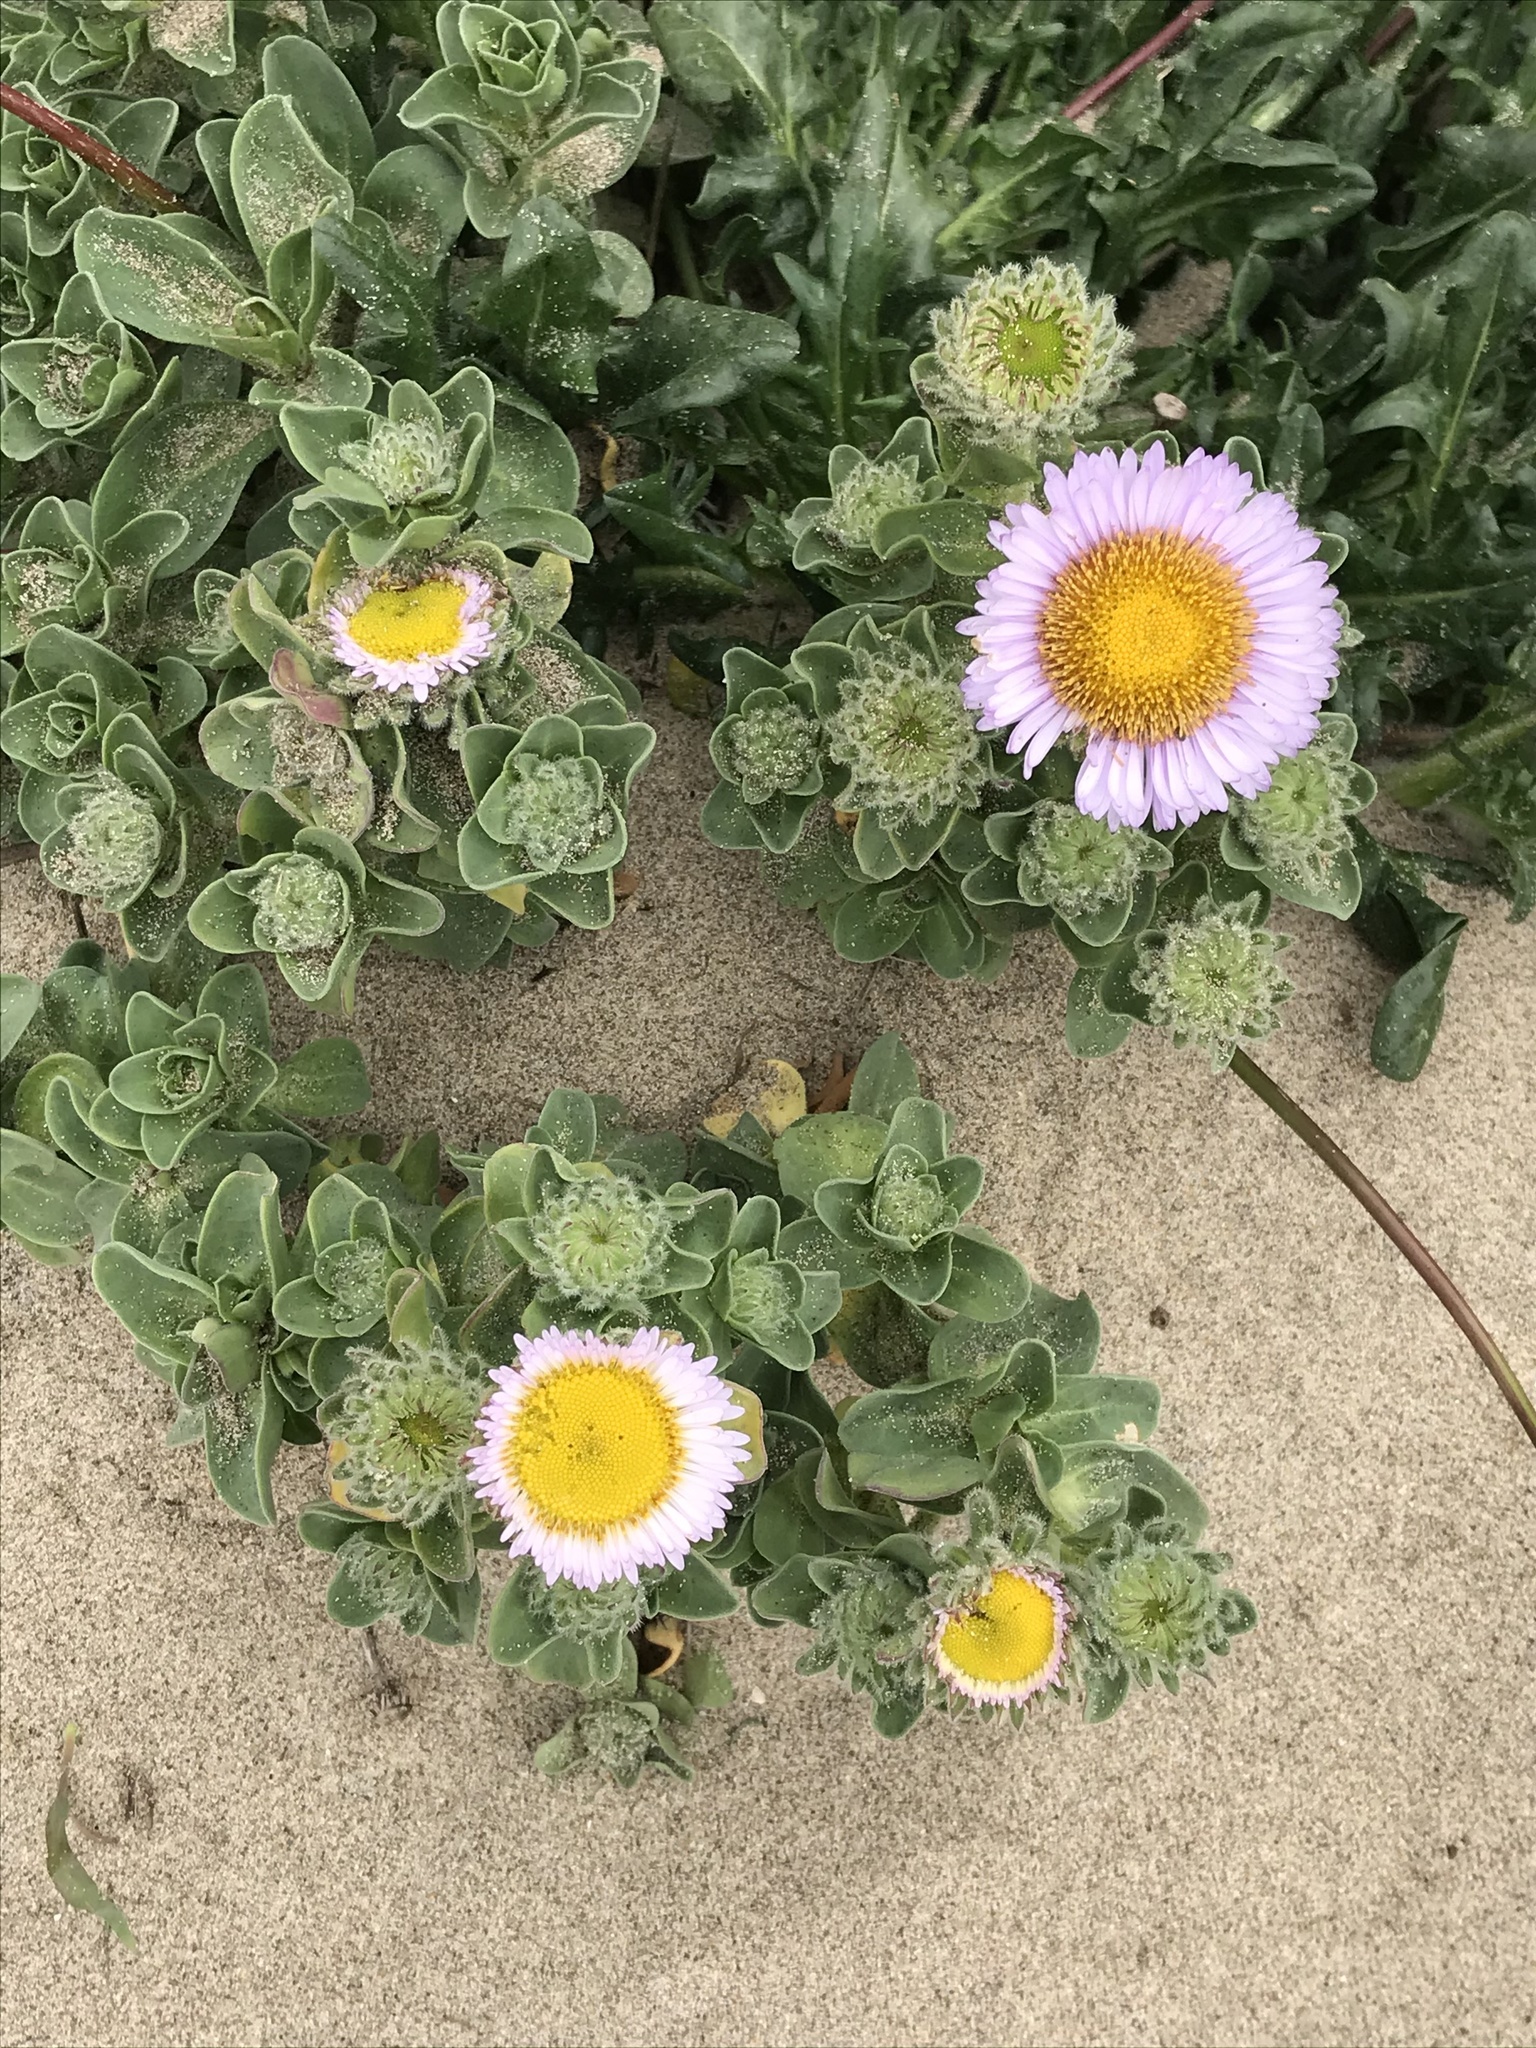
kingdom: Plantae
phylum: Tracheophyta
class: Magnoliopsida
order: Asterales
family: Asteraceae
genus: Erigeron
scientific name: Erigeron glaucus
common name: Seaside daisy
